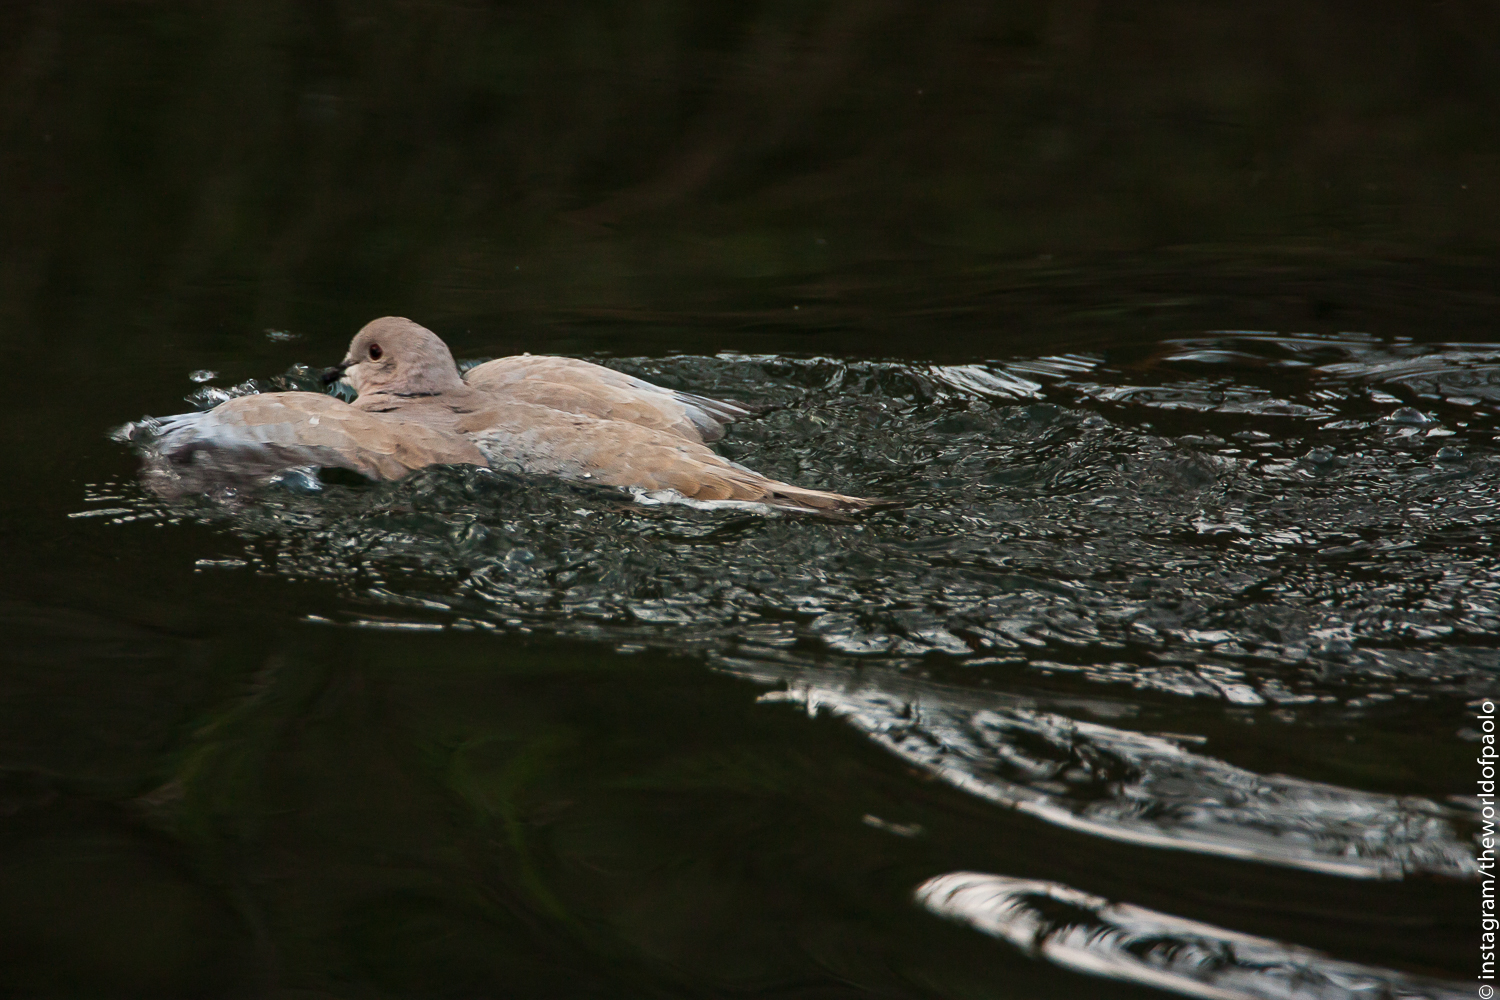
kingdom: Animalia
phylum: Chordata
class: Aves
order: Columbiformes
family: Columbidae
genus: Streptopelia
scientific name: Streptopelia decaocto
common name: Eurasian collared dove
